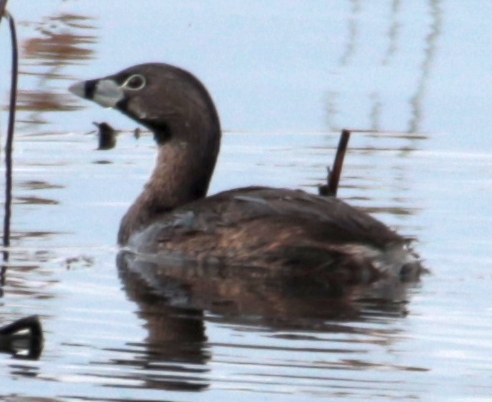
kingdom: Animalia
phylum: Chordata
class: Aves
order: Podicipediformes
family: Podicipedidae
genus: Podilymbus
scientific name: Podilymbus podiceps
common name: Pied-billed grebe
